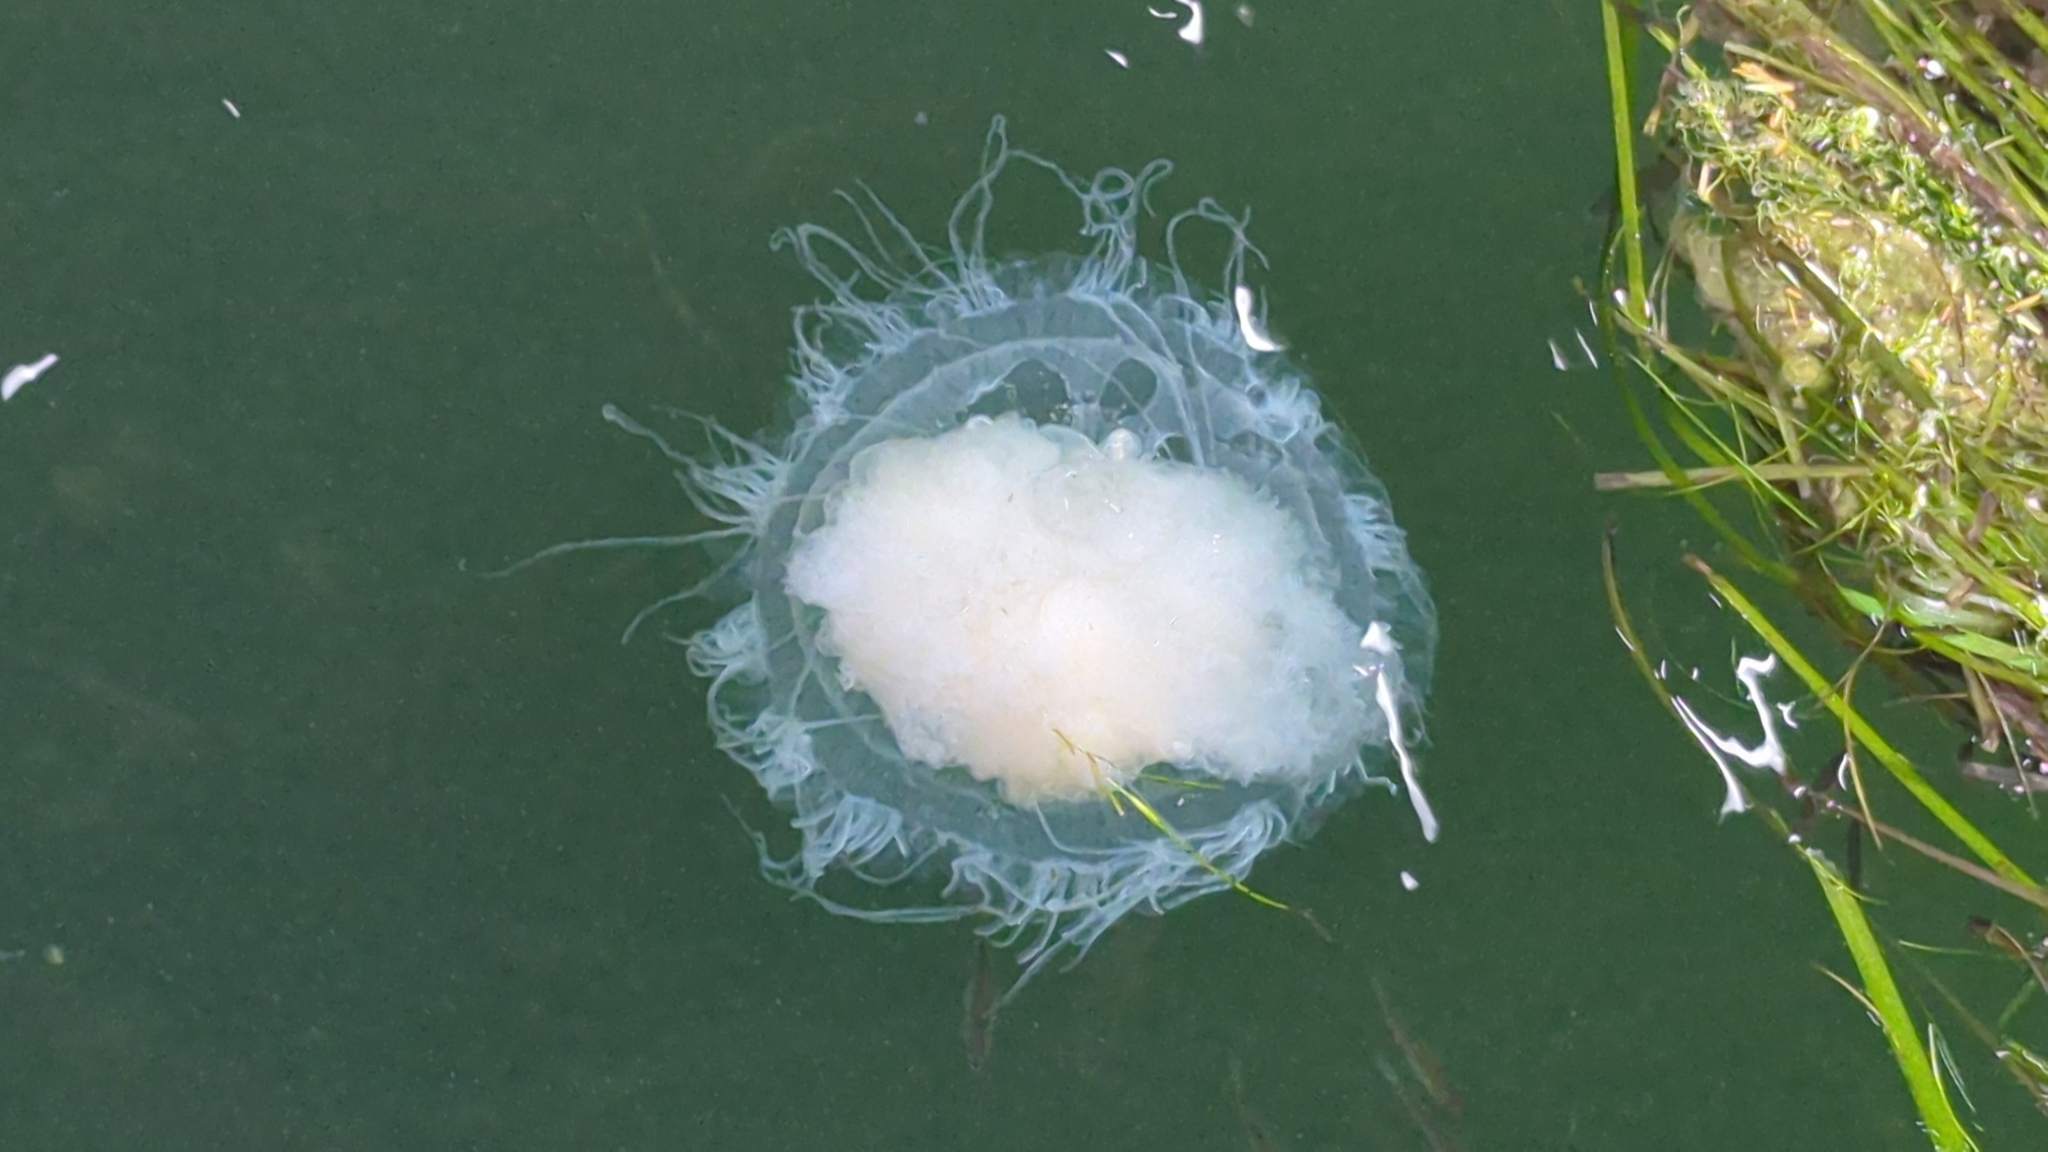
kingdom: Animalia
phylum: Cnidaria
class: Scyphozoa
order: Semaeostomeae
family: Phacellophoridae
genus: Phacellophora
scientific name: Phacellophora camtschatica
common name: Fried-egg jellyfish
